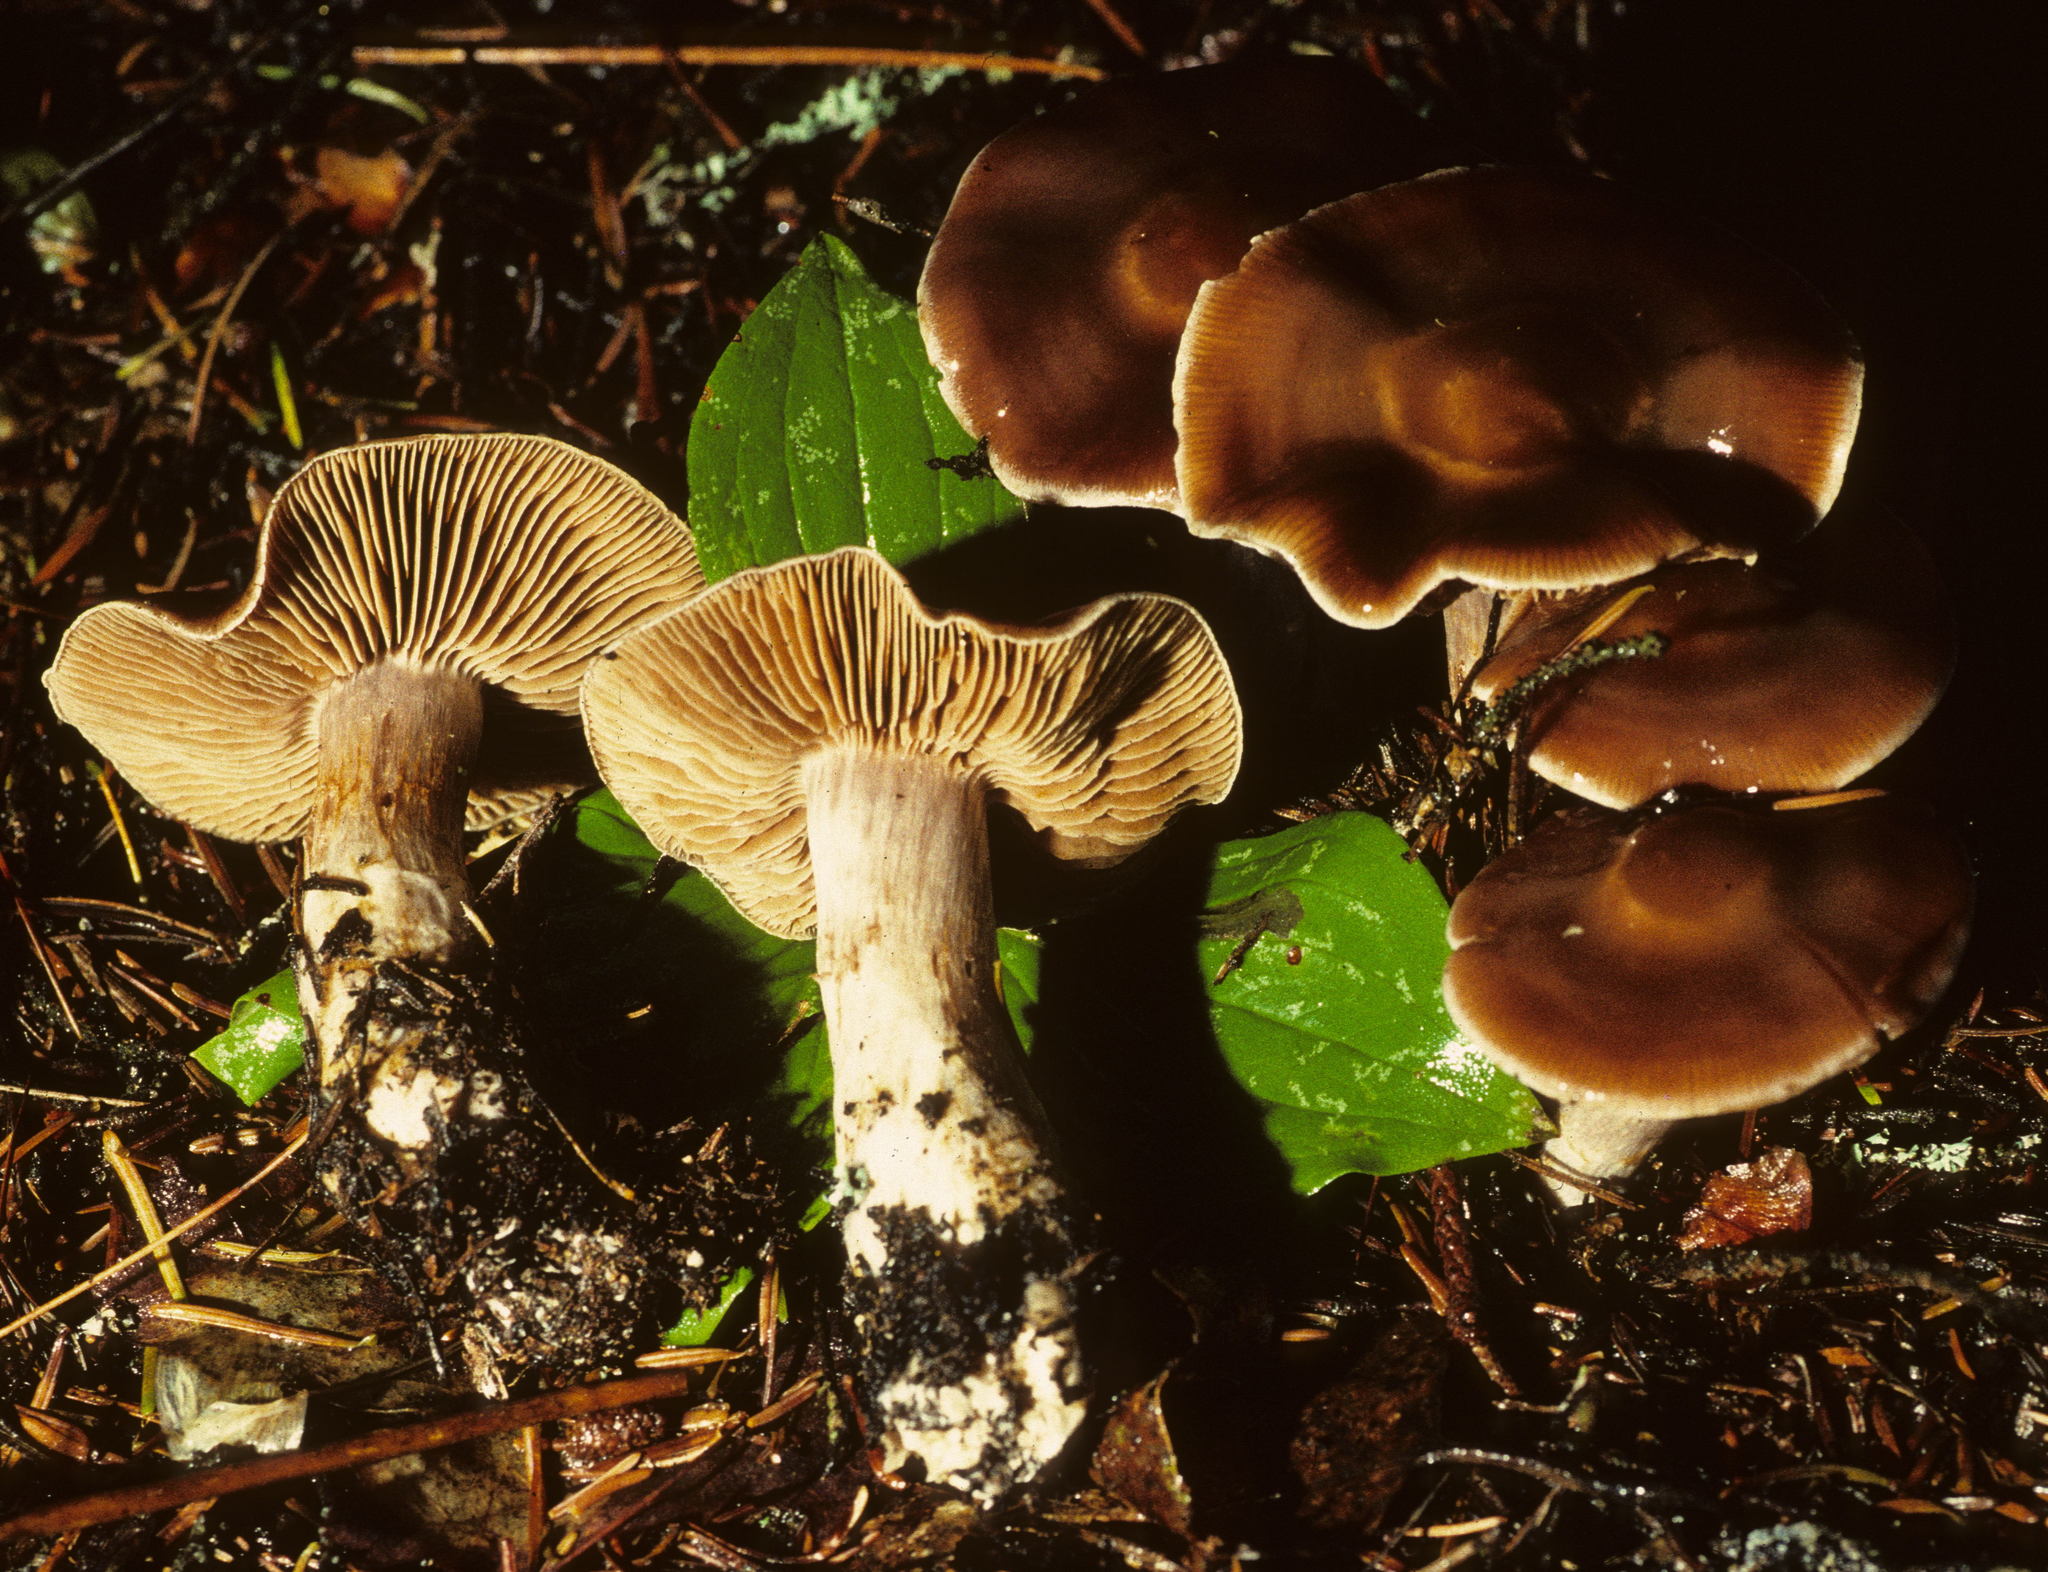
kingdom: Fungi
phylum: Basidiomycota
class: Agaricomycetes
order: Agaricales
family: Cortinariaceae
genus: Cortinarius
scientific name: Cortinarius illuminus
